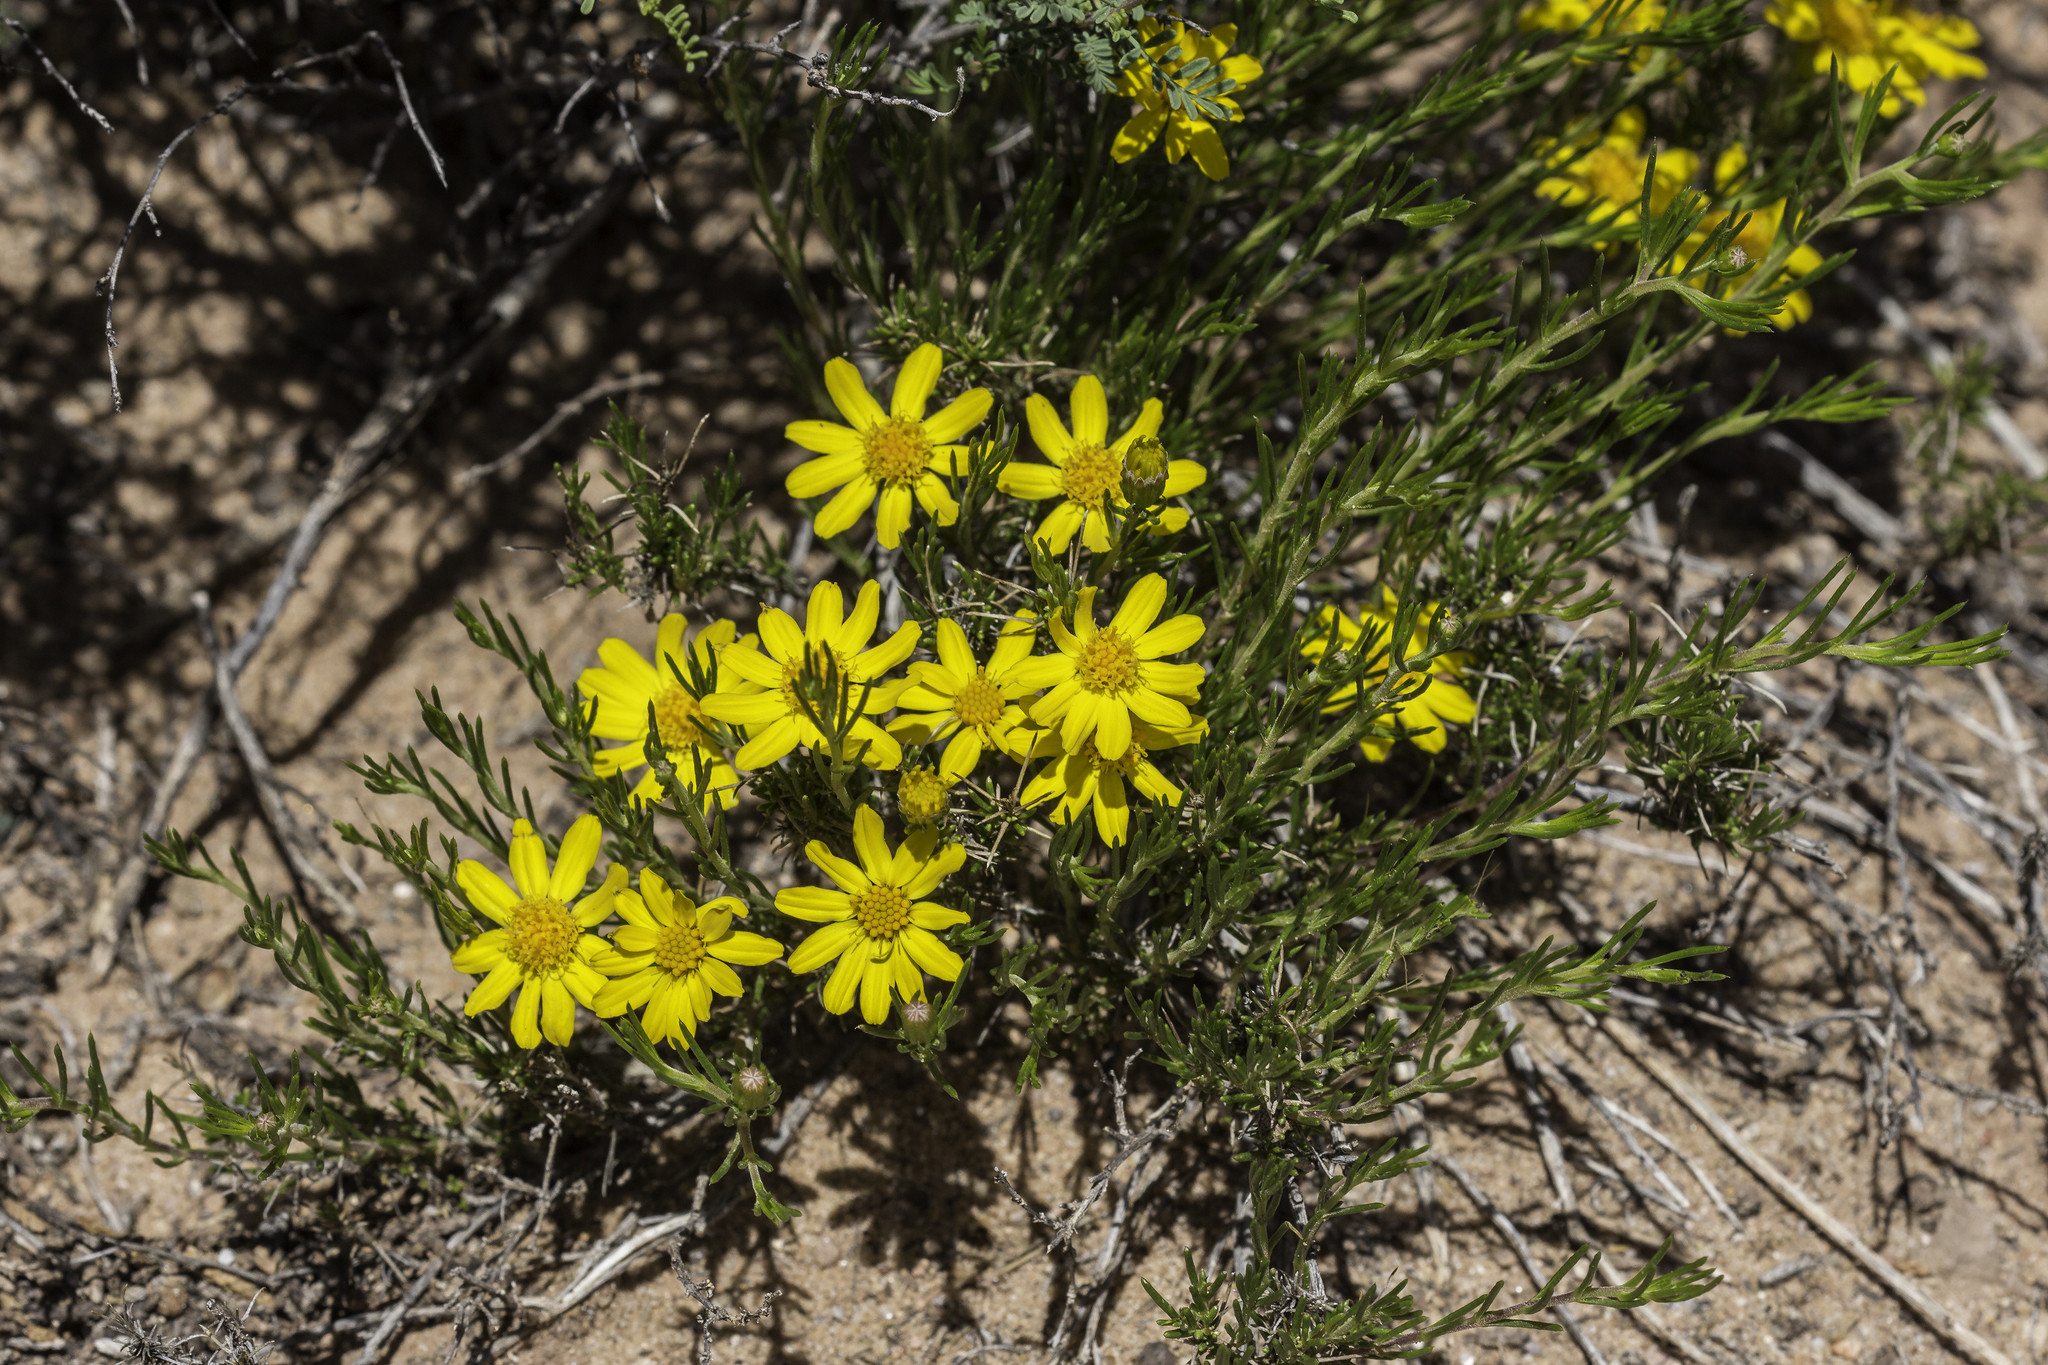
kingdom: Plantae
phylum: Tracheophyta
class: Magnoliopsida
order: Asterales
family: Asteraceae
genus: Thymophylla
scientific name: Thymophylla acerosa
